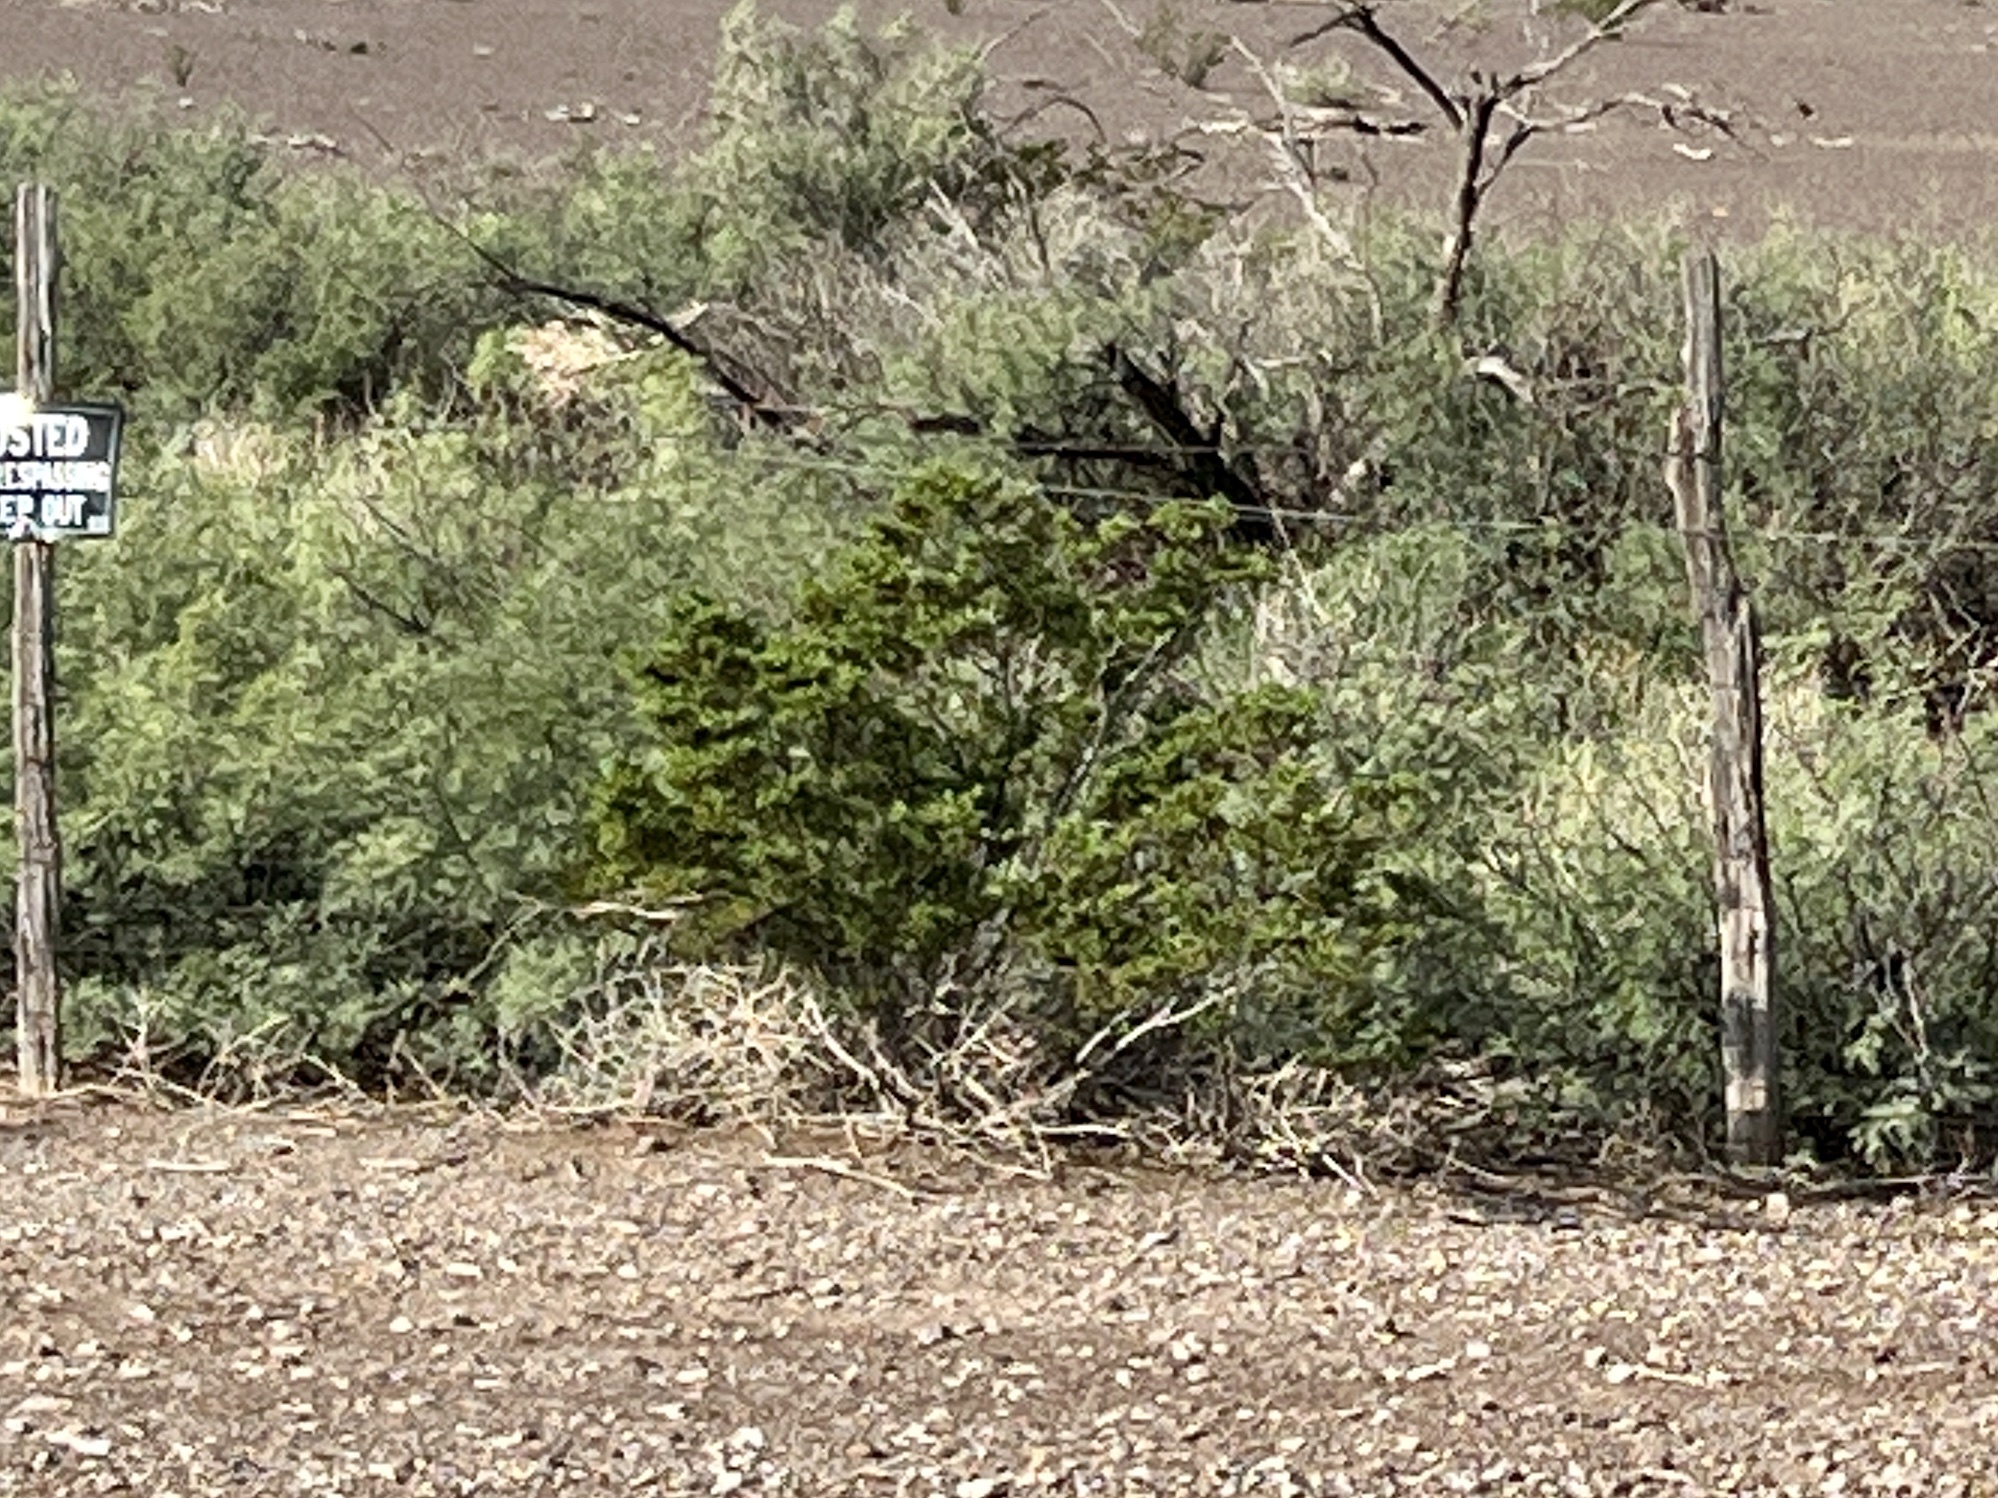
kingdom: Plantae
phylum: Tracheophyta
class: Magnoliopsida
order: Zygophyllales
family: Zygophyllaceae
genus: Larrea
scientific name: Larrea tridentata
